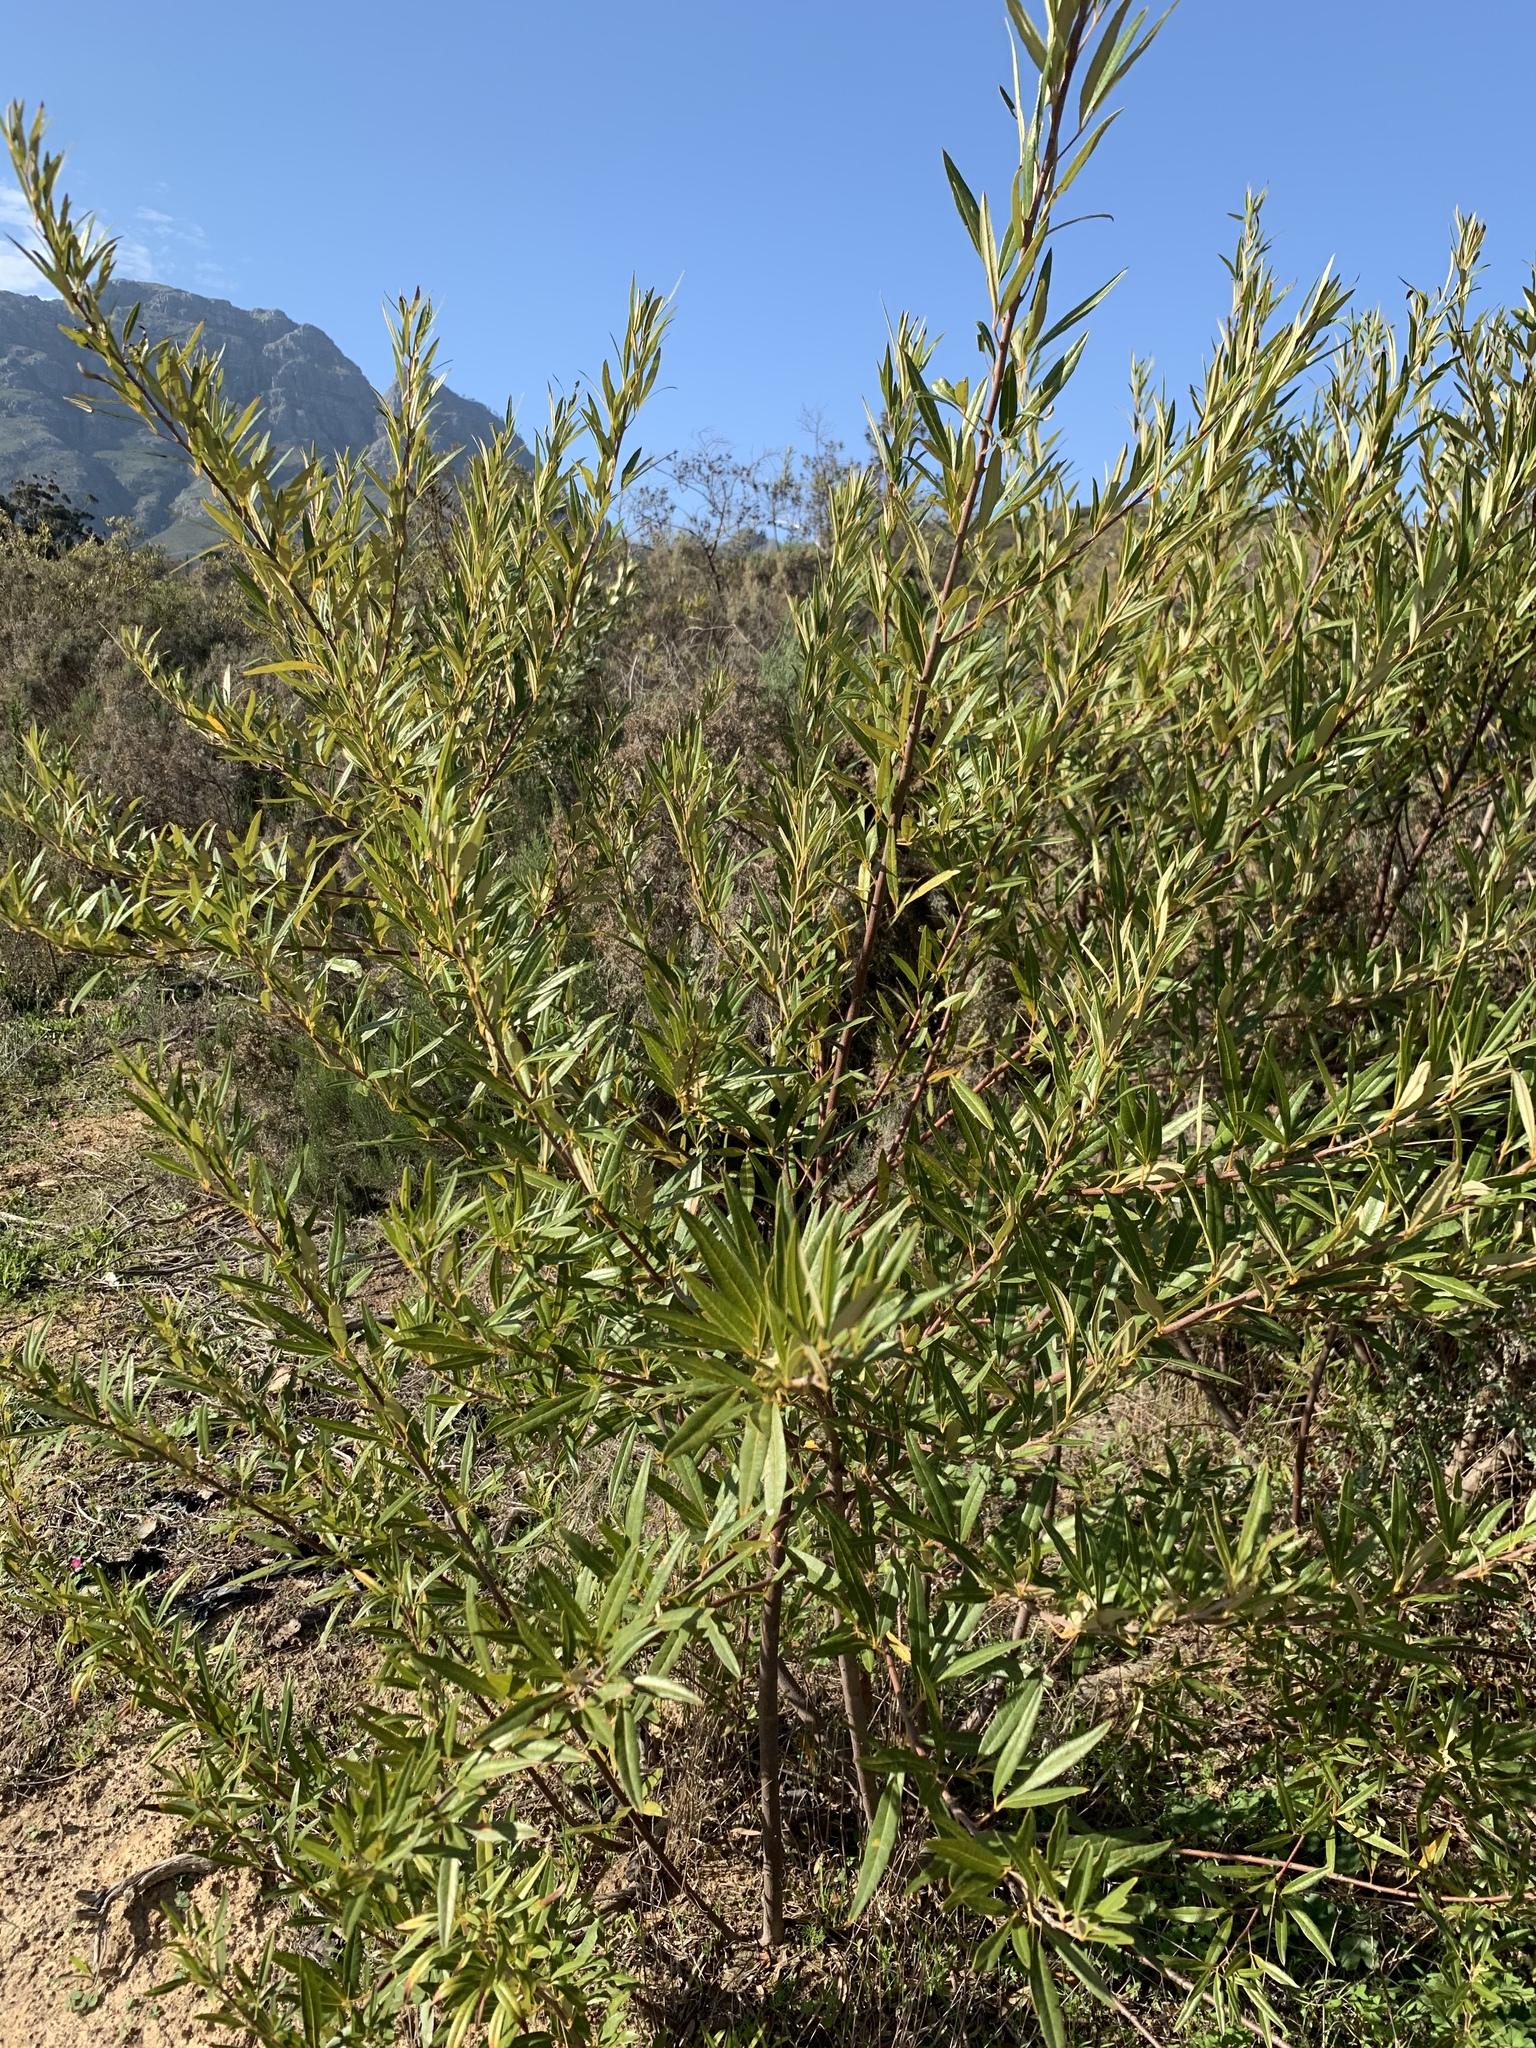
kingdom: Plantae
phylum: Tracheophyta
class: Magnoliopsida
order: Sapindales
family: Anacardiaceae
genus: Searsia
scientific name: Searsia angustifolia
